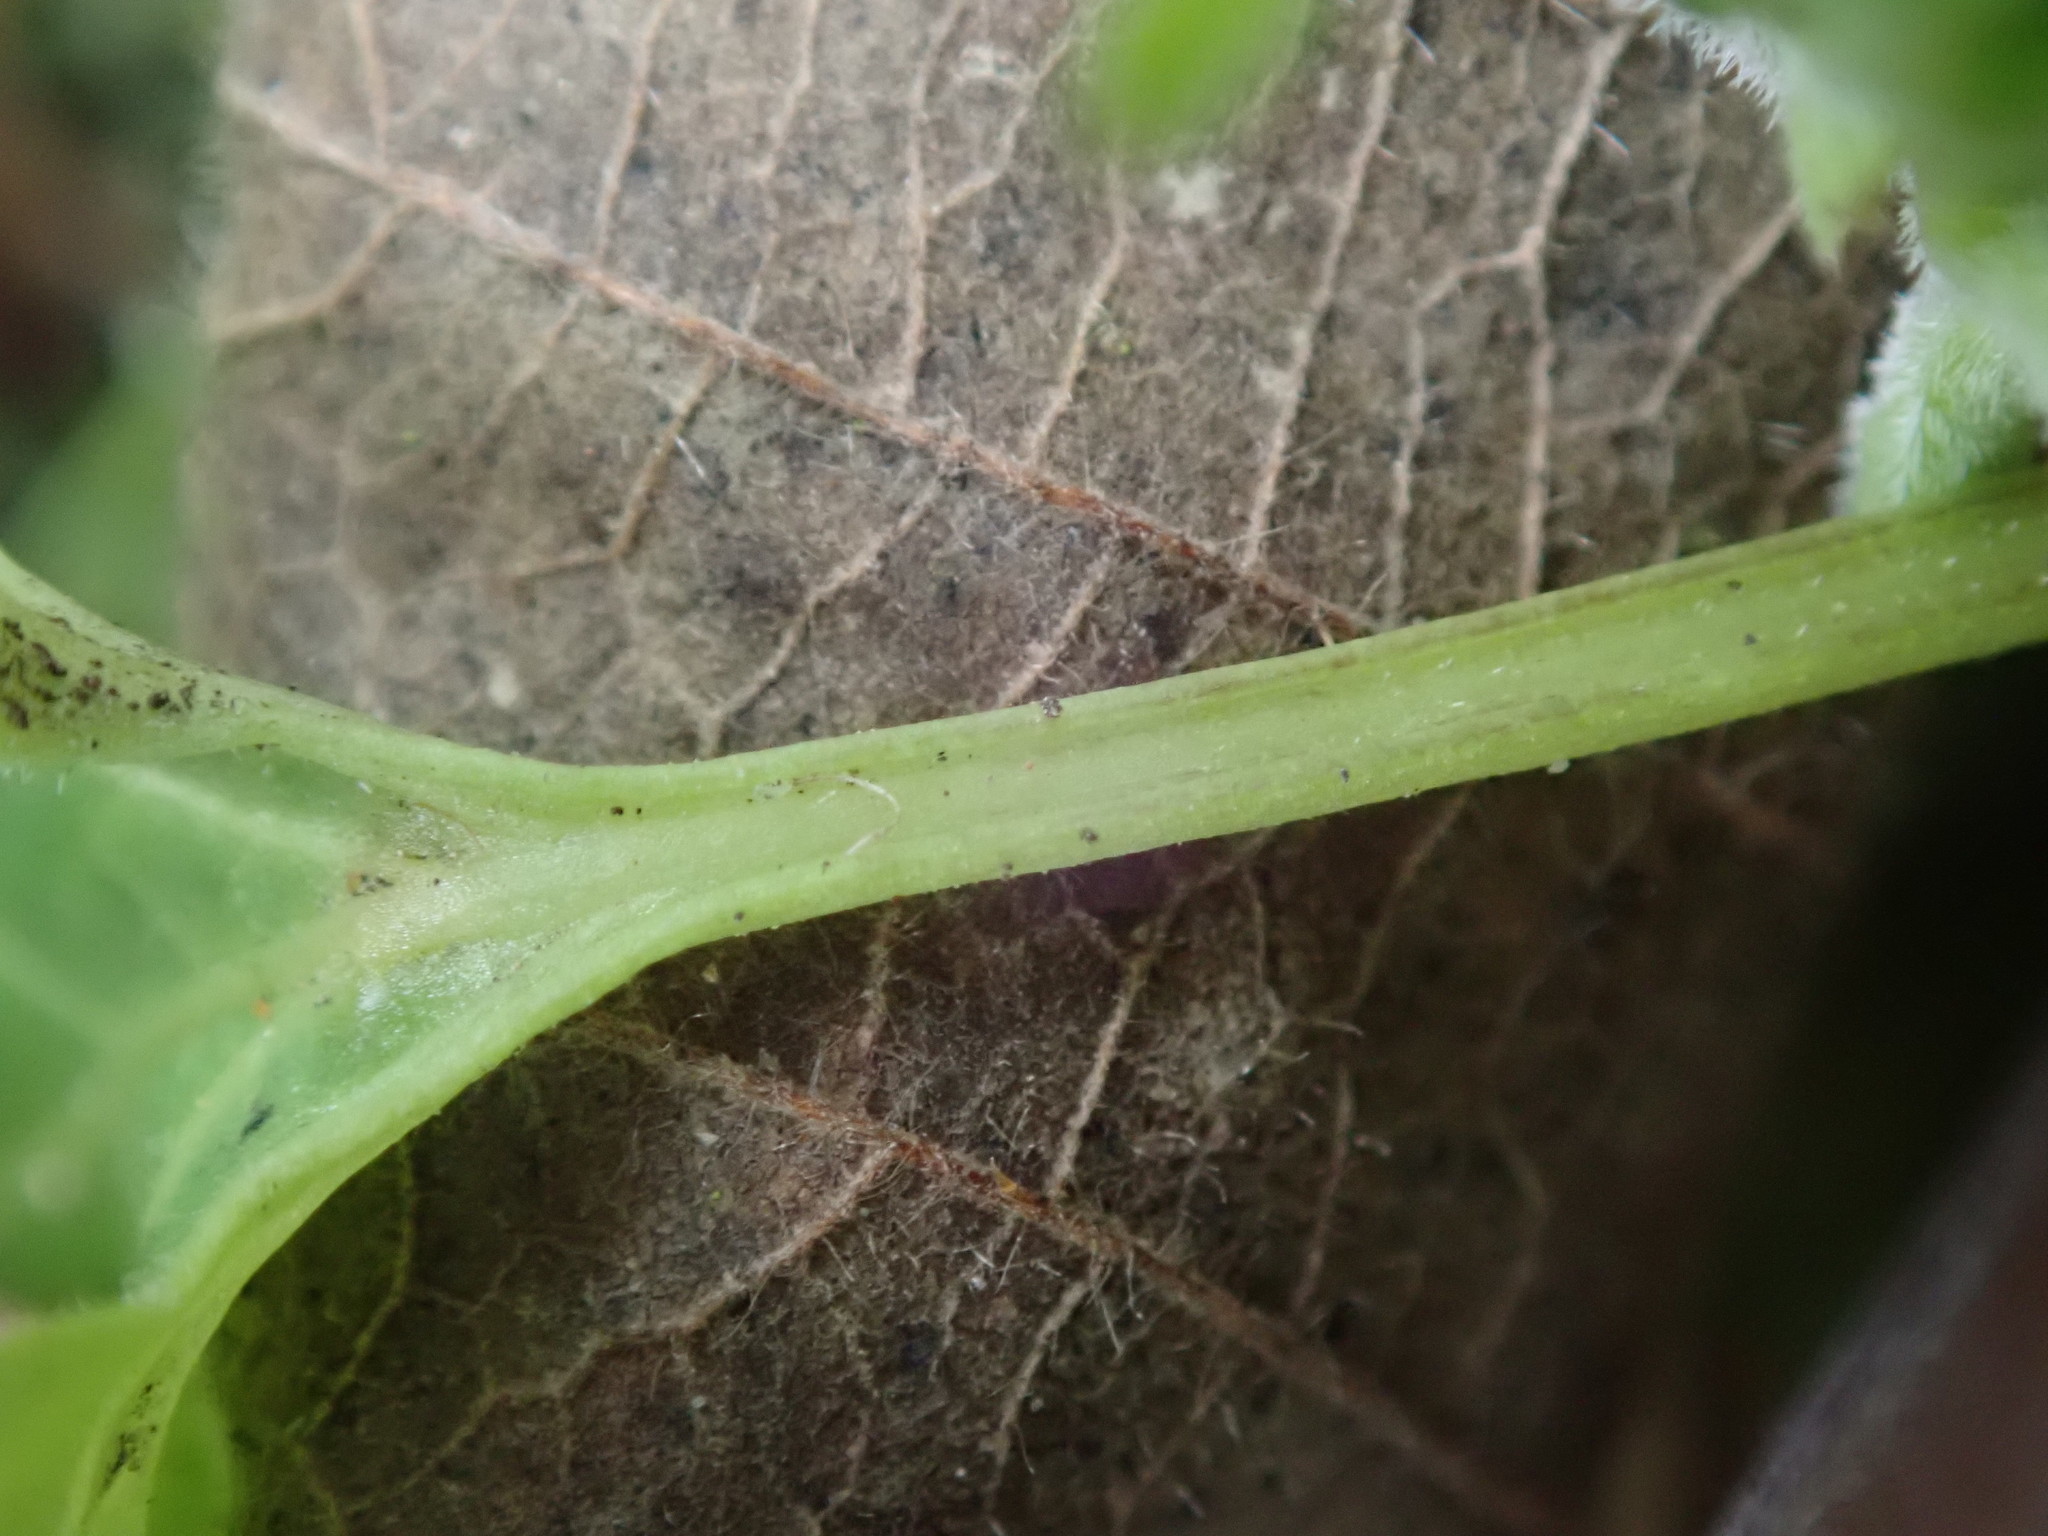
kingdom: Plantae
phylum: Tracheophyta
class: Magnoliopsida
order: Malpighiales
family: Violaceae
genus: Viola
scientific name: Viola odorata
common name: Sweet violet
